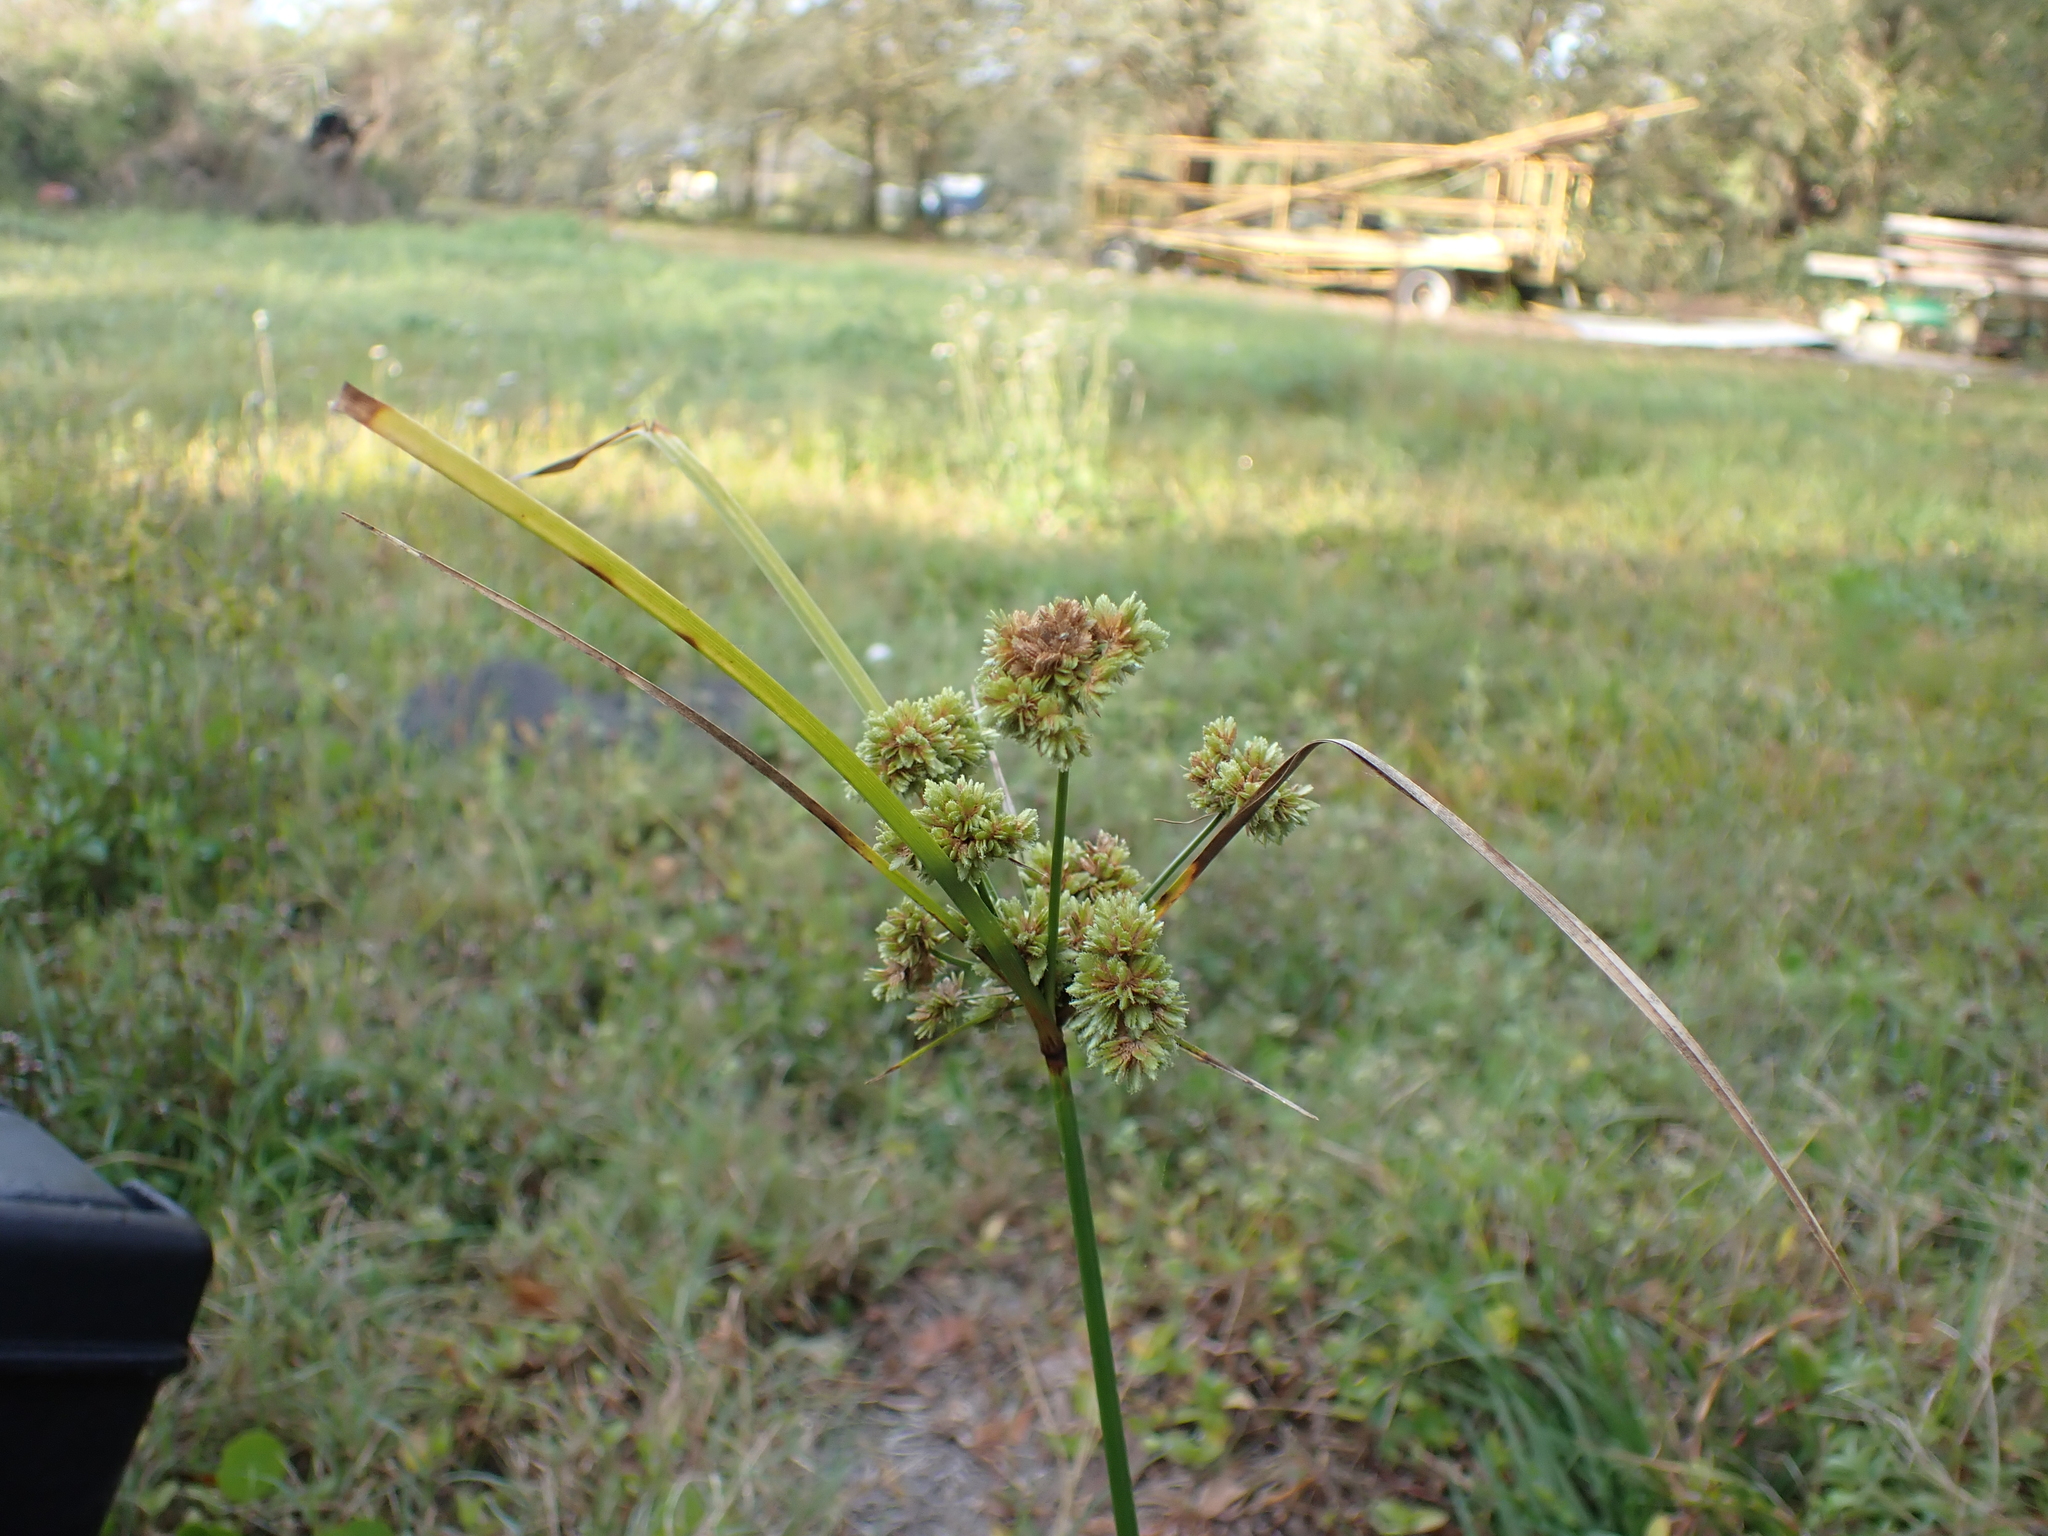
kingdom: Plantae
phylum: Tracheophyta
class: Liliopsida
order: Poales
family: Cyperaceae
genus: Cyperus
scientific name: Cyperus entrerianus
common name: Woodrush flatsedge
